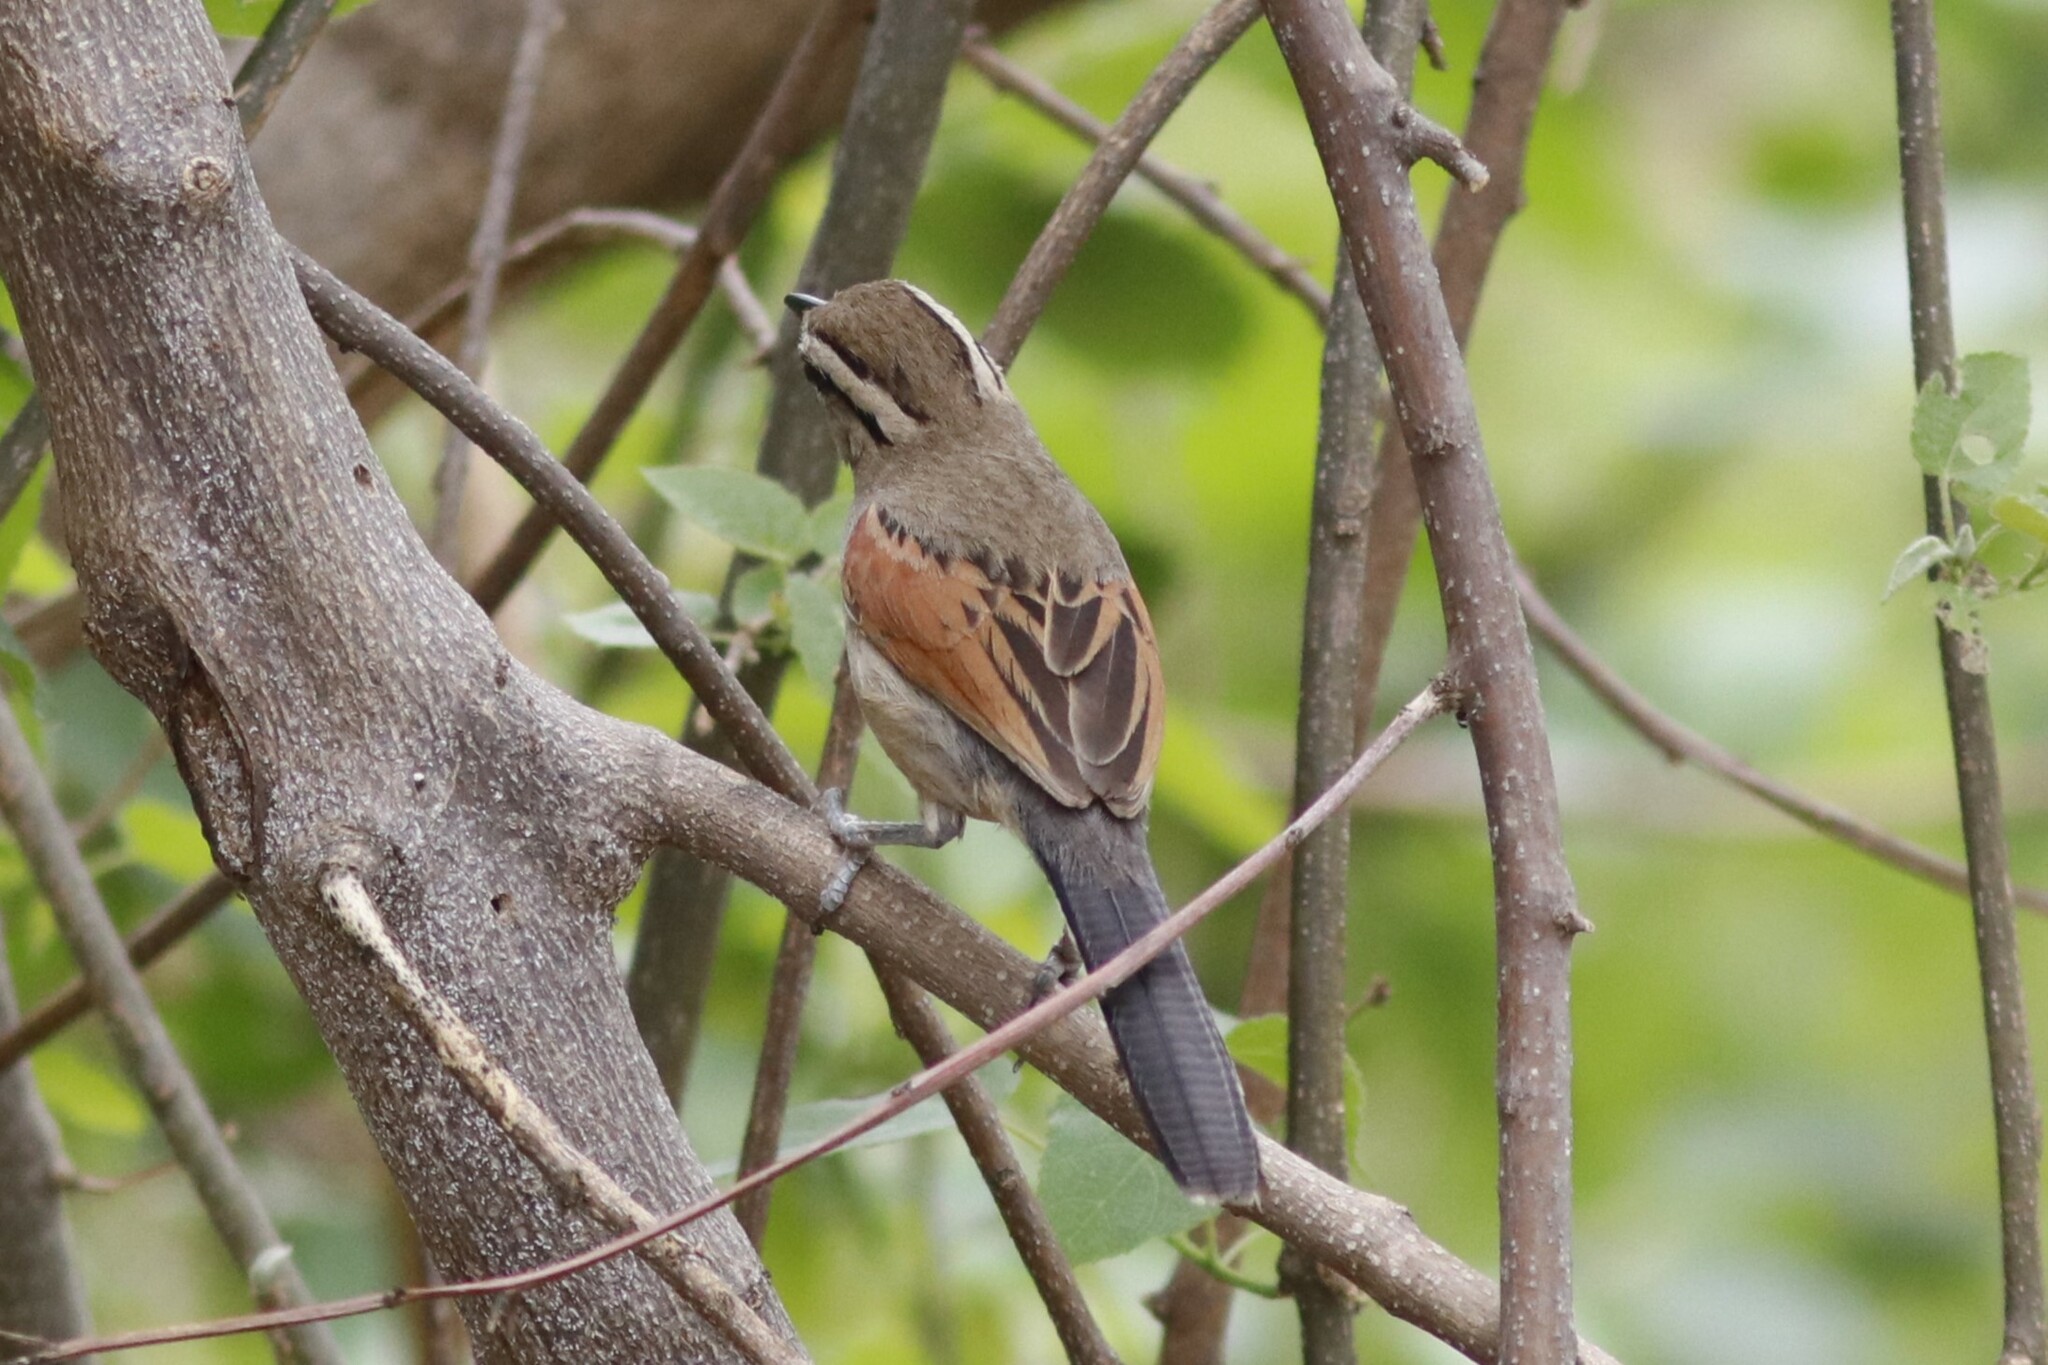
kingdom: Animalia
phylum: Chordata
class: Aves
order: Passeriformes
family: Malaconotidae
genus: Tchagra
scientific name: Tchagra australis
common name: Brown-crowned tchagra
